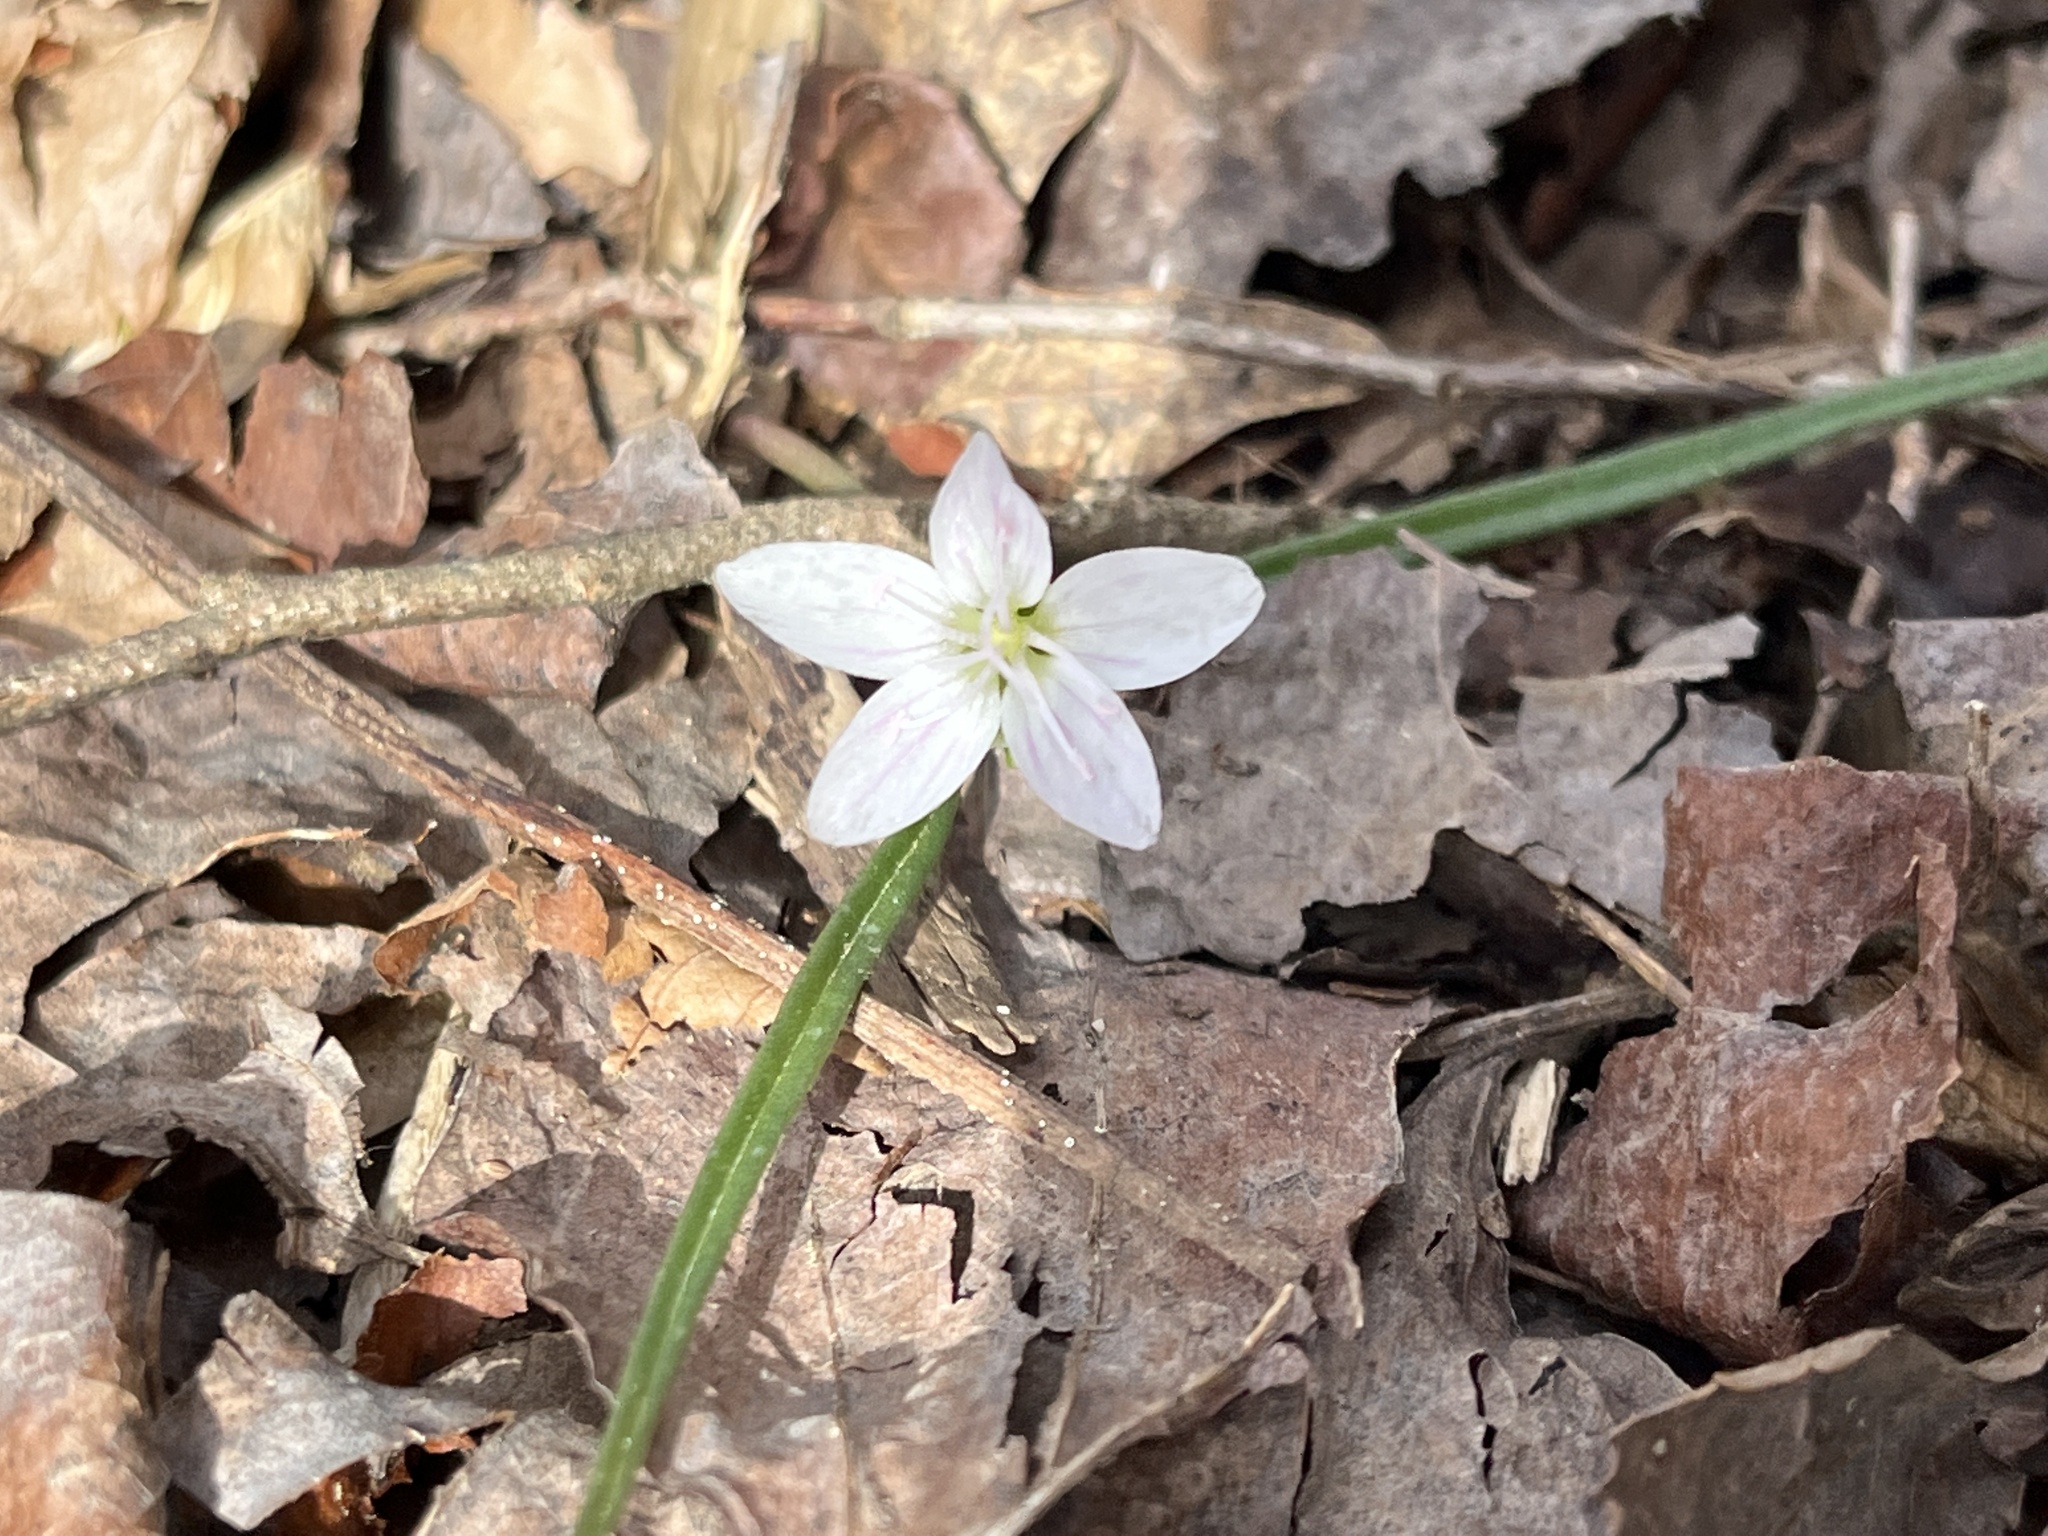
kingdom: Plantae
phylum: Tracheophyta
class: Magnoliopsida
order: Caryophyllales
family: Montiaceae
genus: Claytonia
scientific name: Claytonia virginica
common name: Virginia springbeauty
